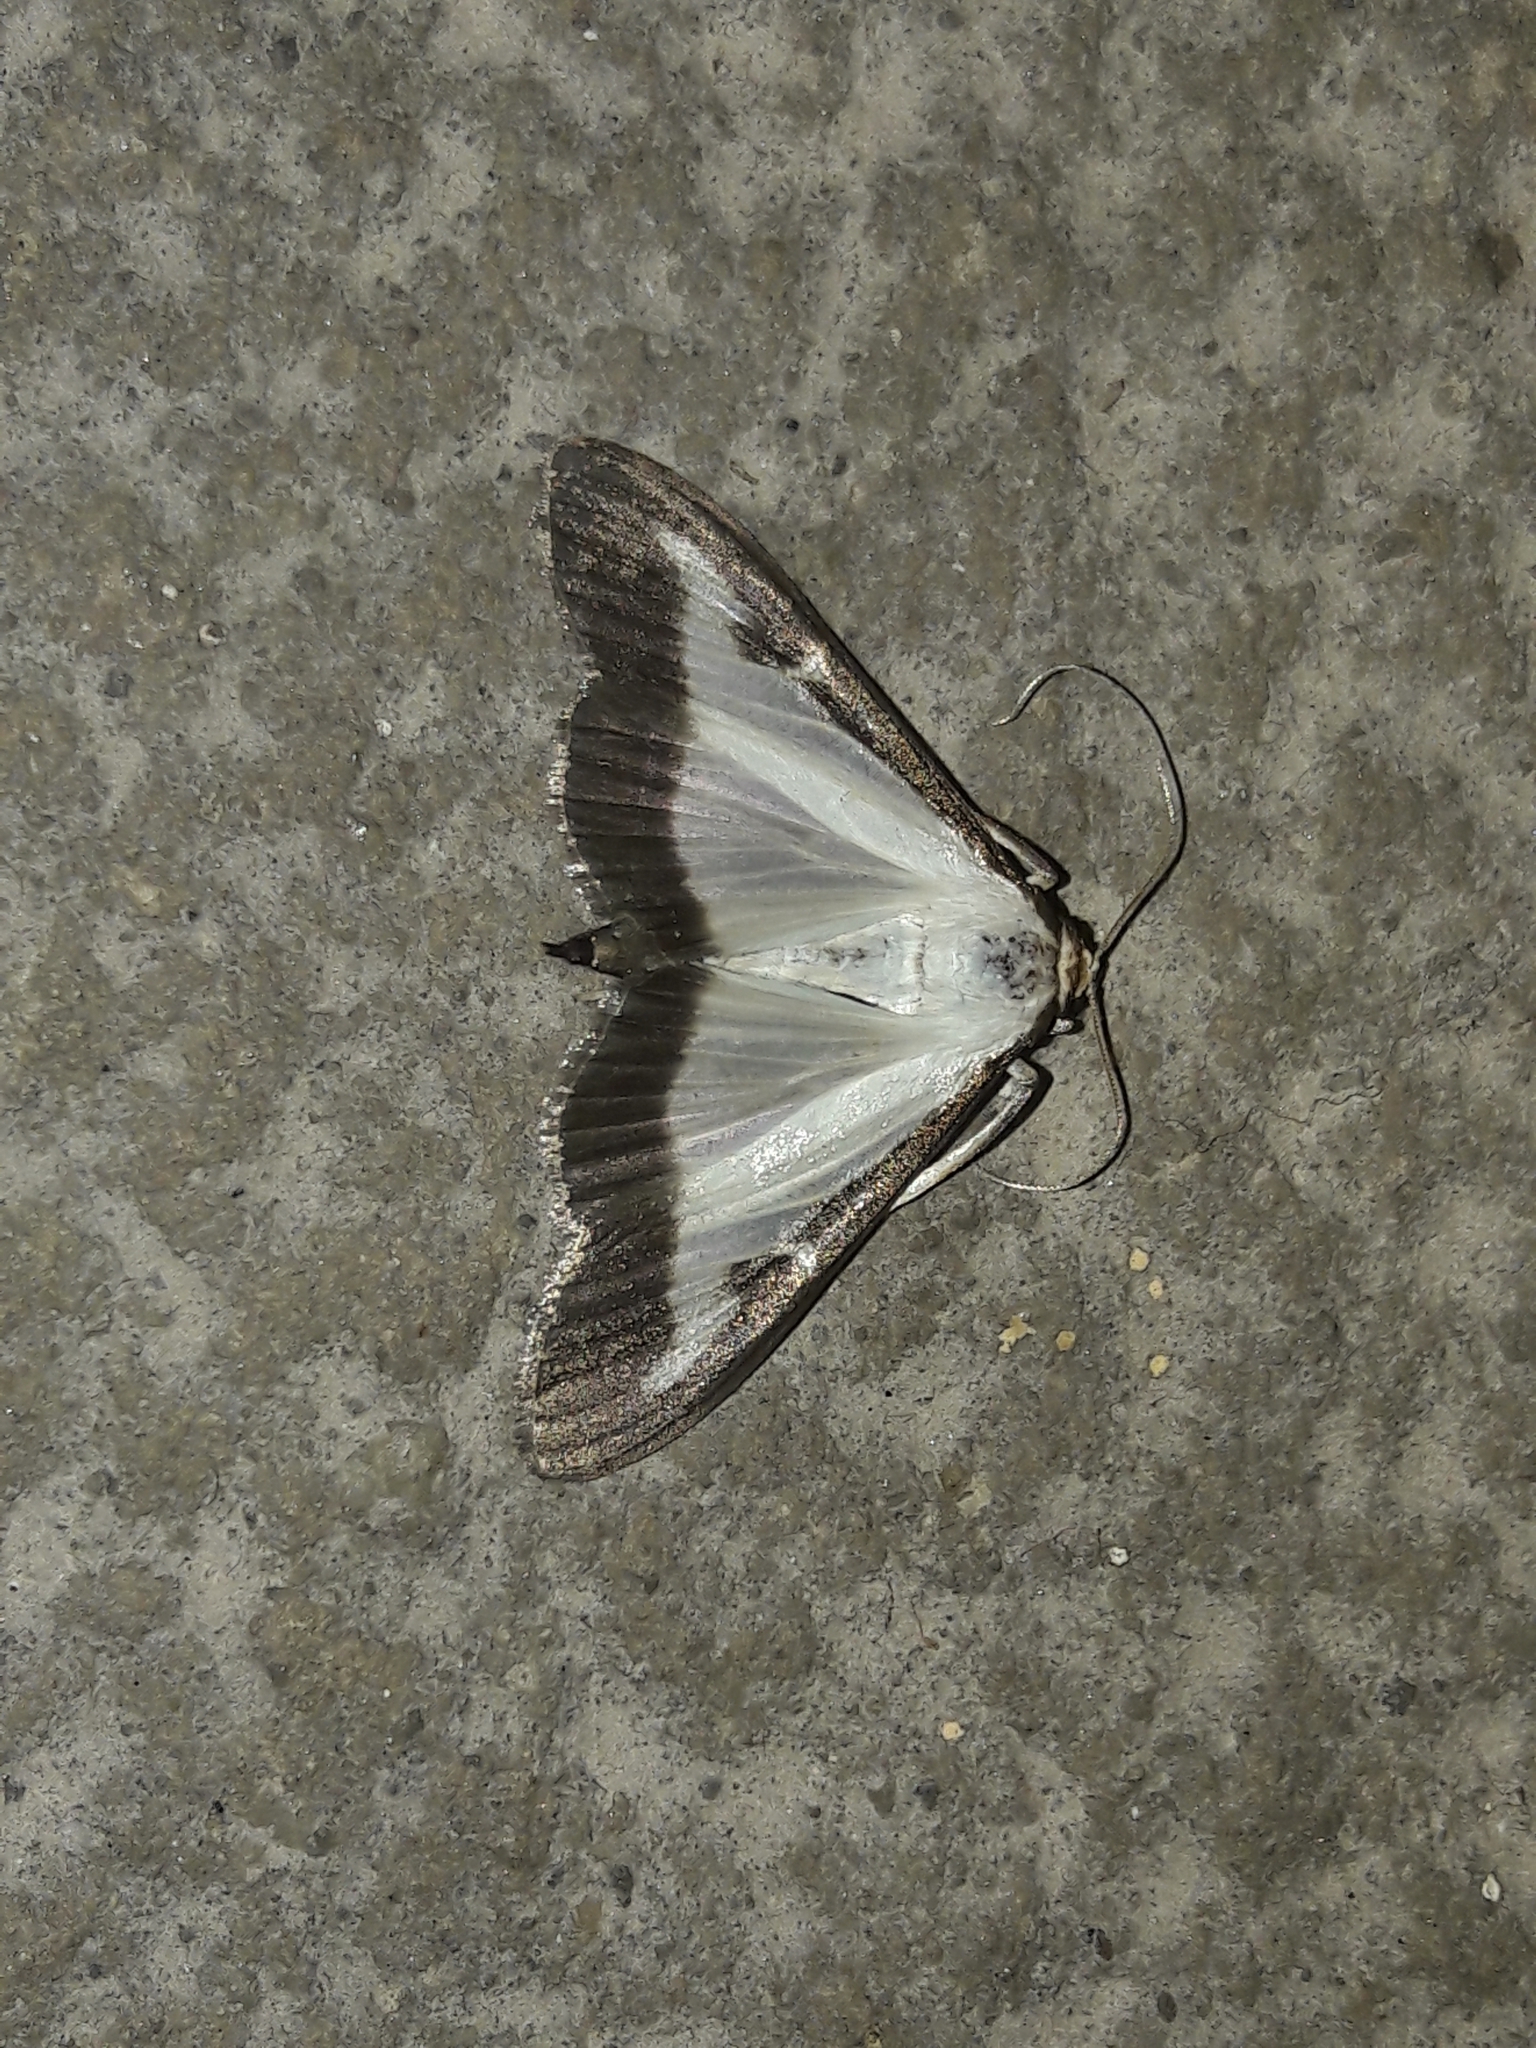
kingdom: Animalia
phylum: Arthropoda
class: Insecta
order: Lepidoptera
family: Crambidae
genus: Cydalima
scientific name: Cydalima perspectalis
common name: Box tree moth
